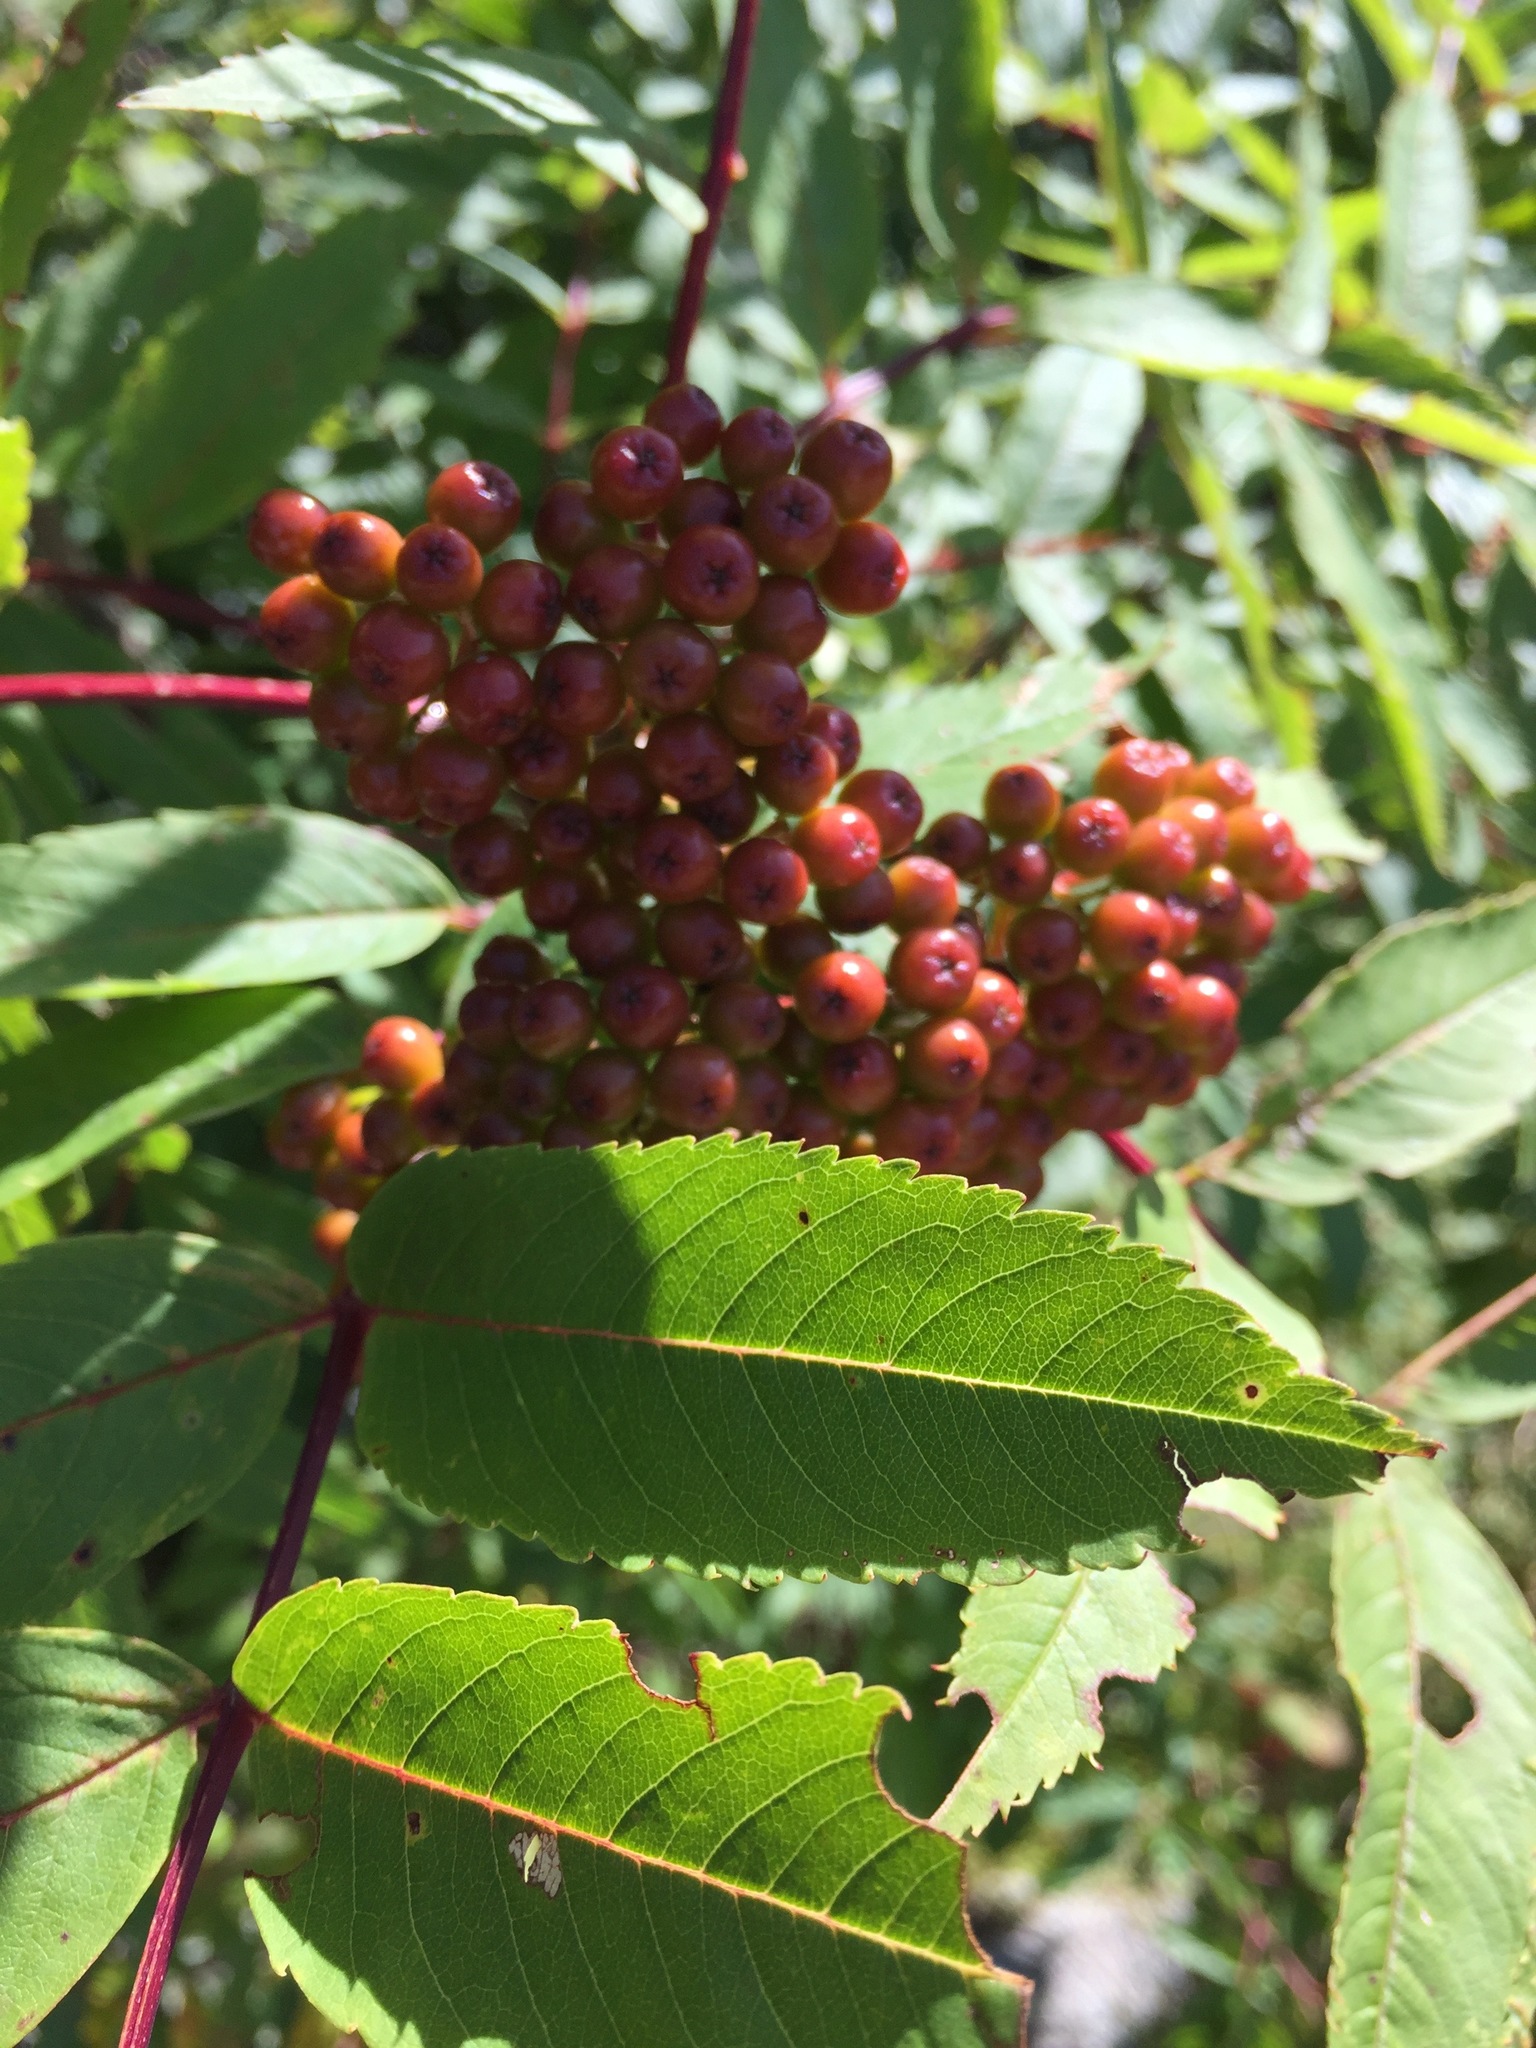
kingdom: Plantae
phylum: Tracheophyta
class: Magnoliopsida
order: Rosales
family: Rosaceae
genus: Sorbus
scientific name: Sorbus americana
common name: American mountain-ash
